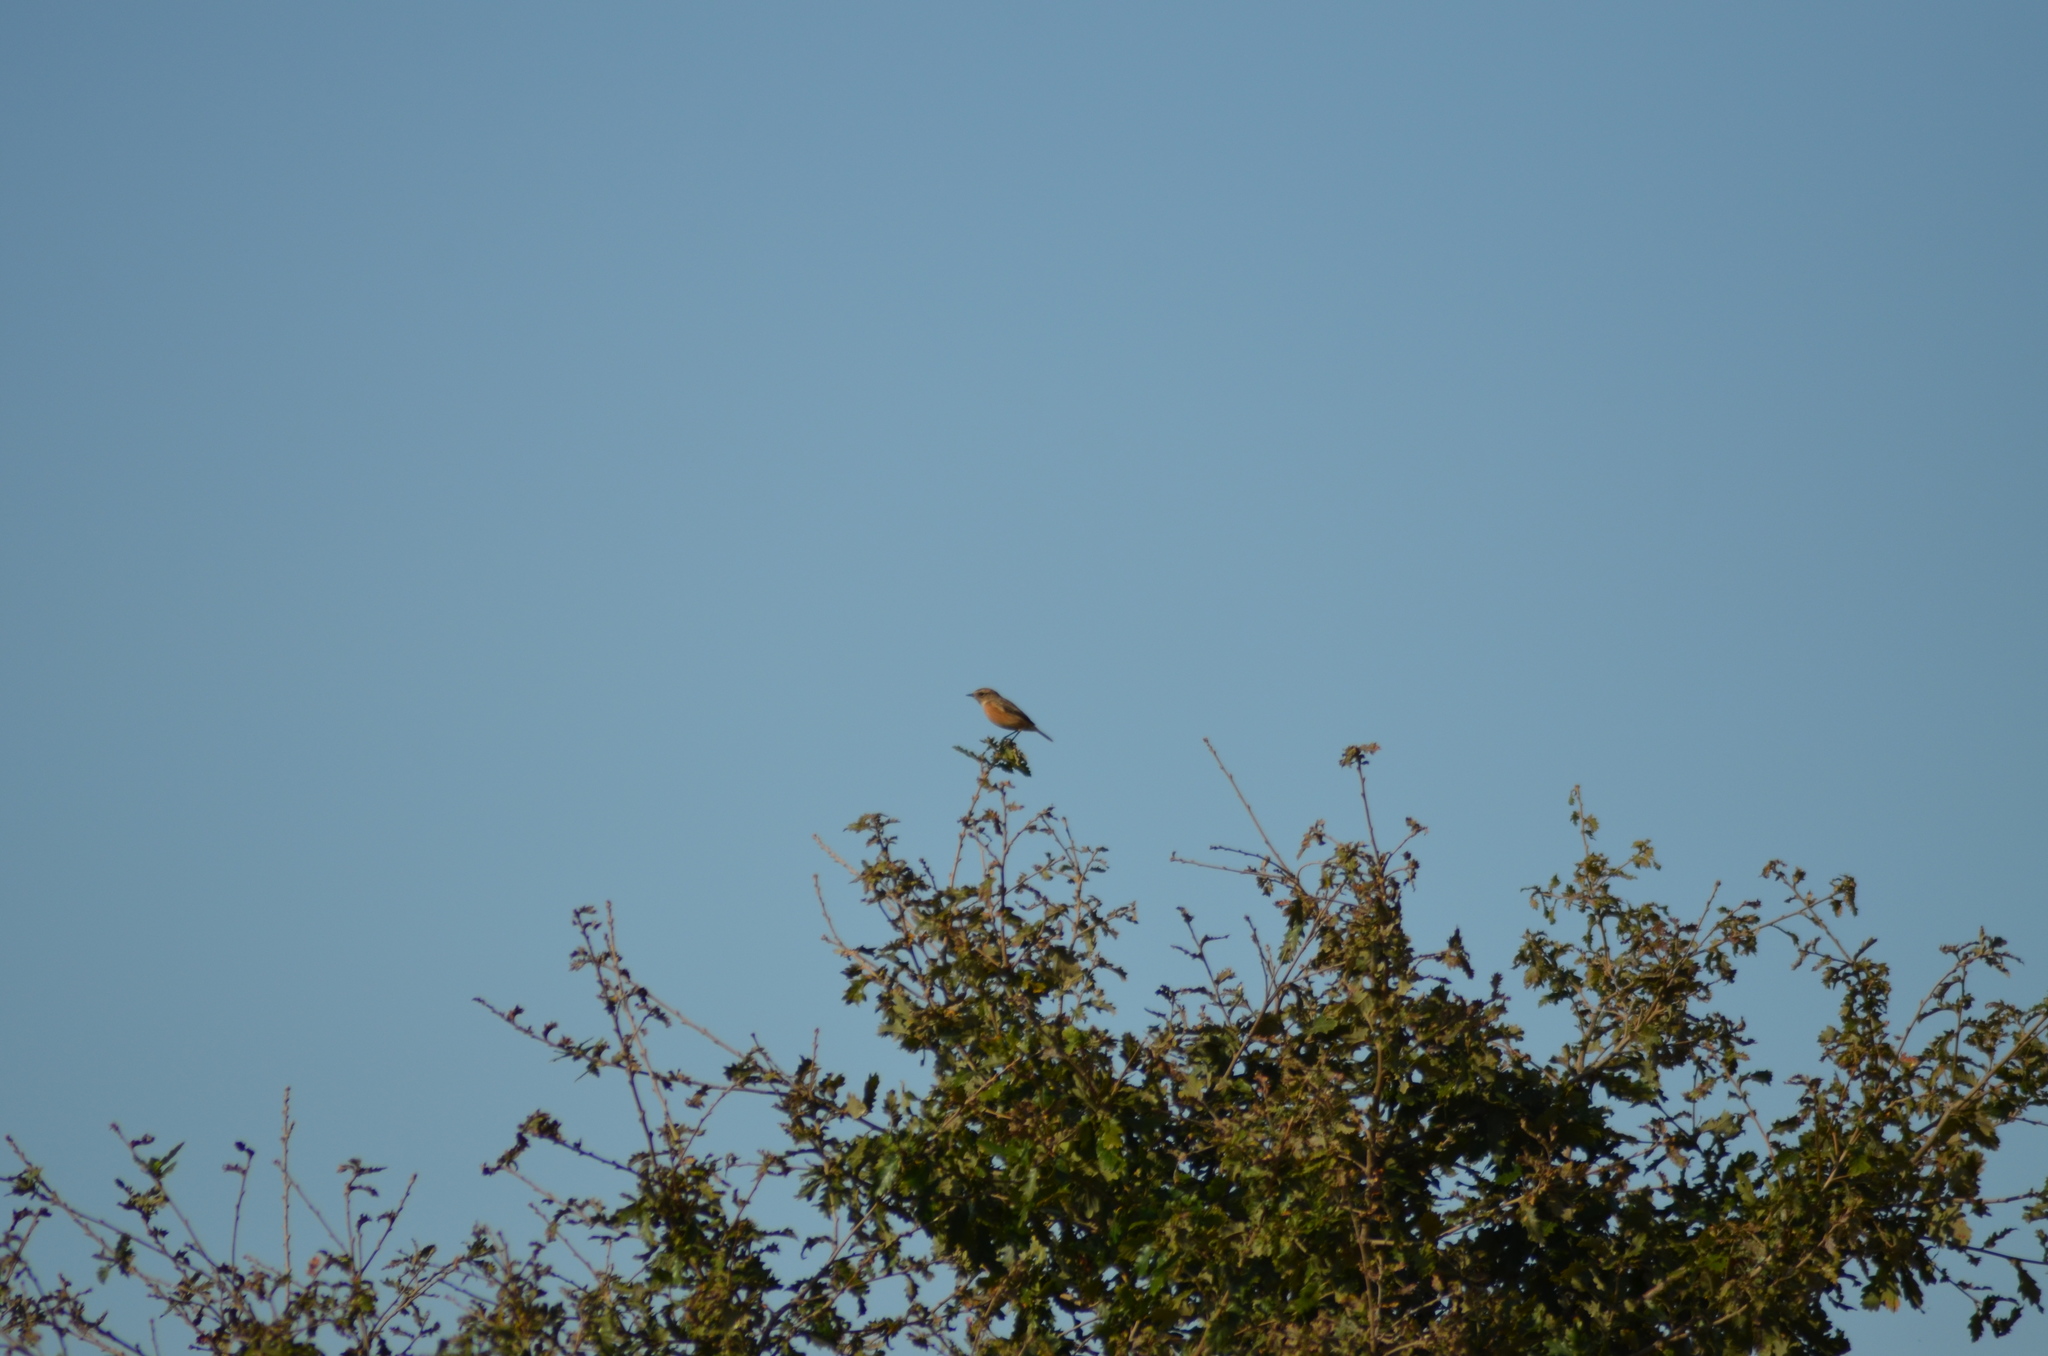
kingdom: Animalia
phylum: Chordata
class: Aves
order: Passeriformes
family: Muscicapidae
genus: Saxicola
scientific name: Saxicola rubicola
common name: European stonechat
